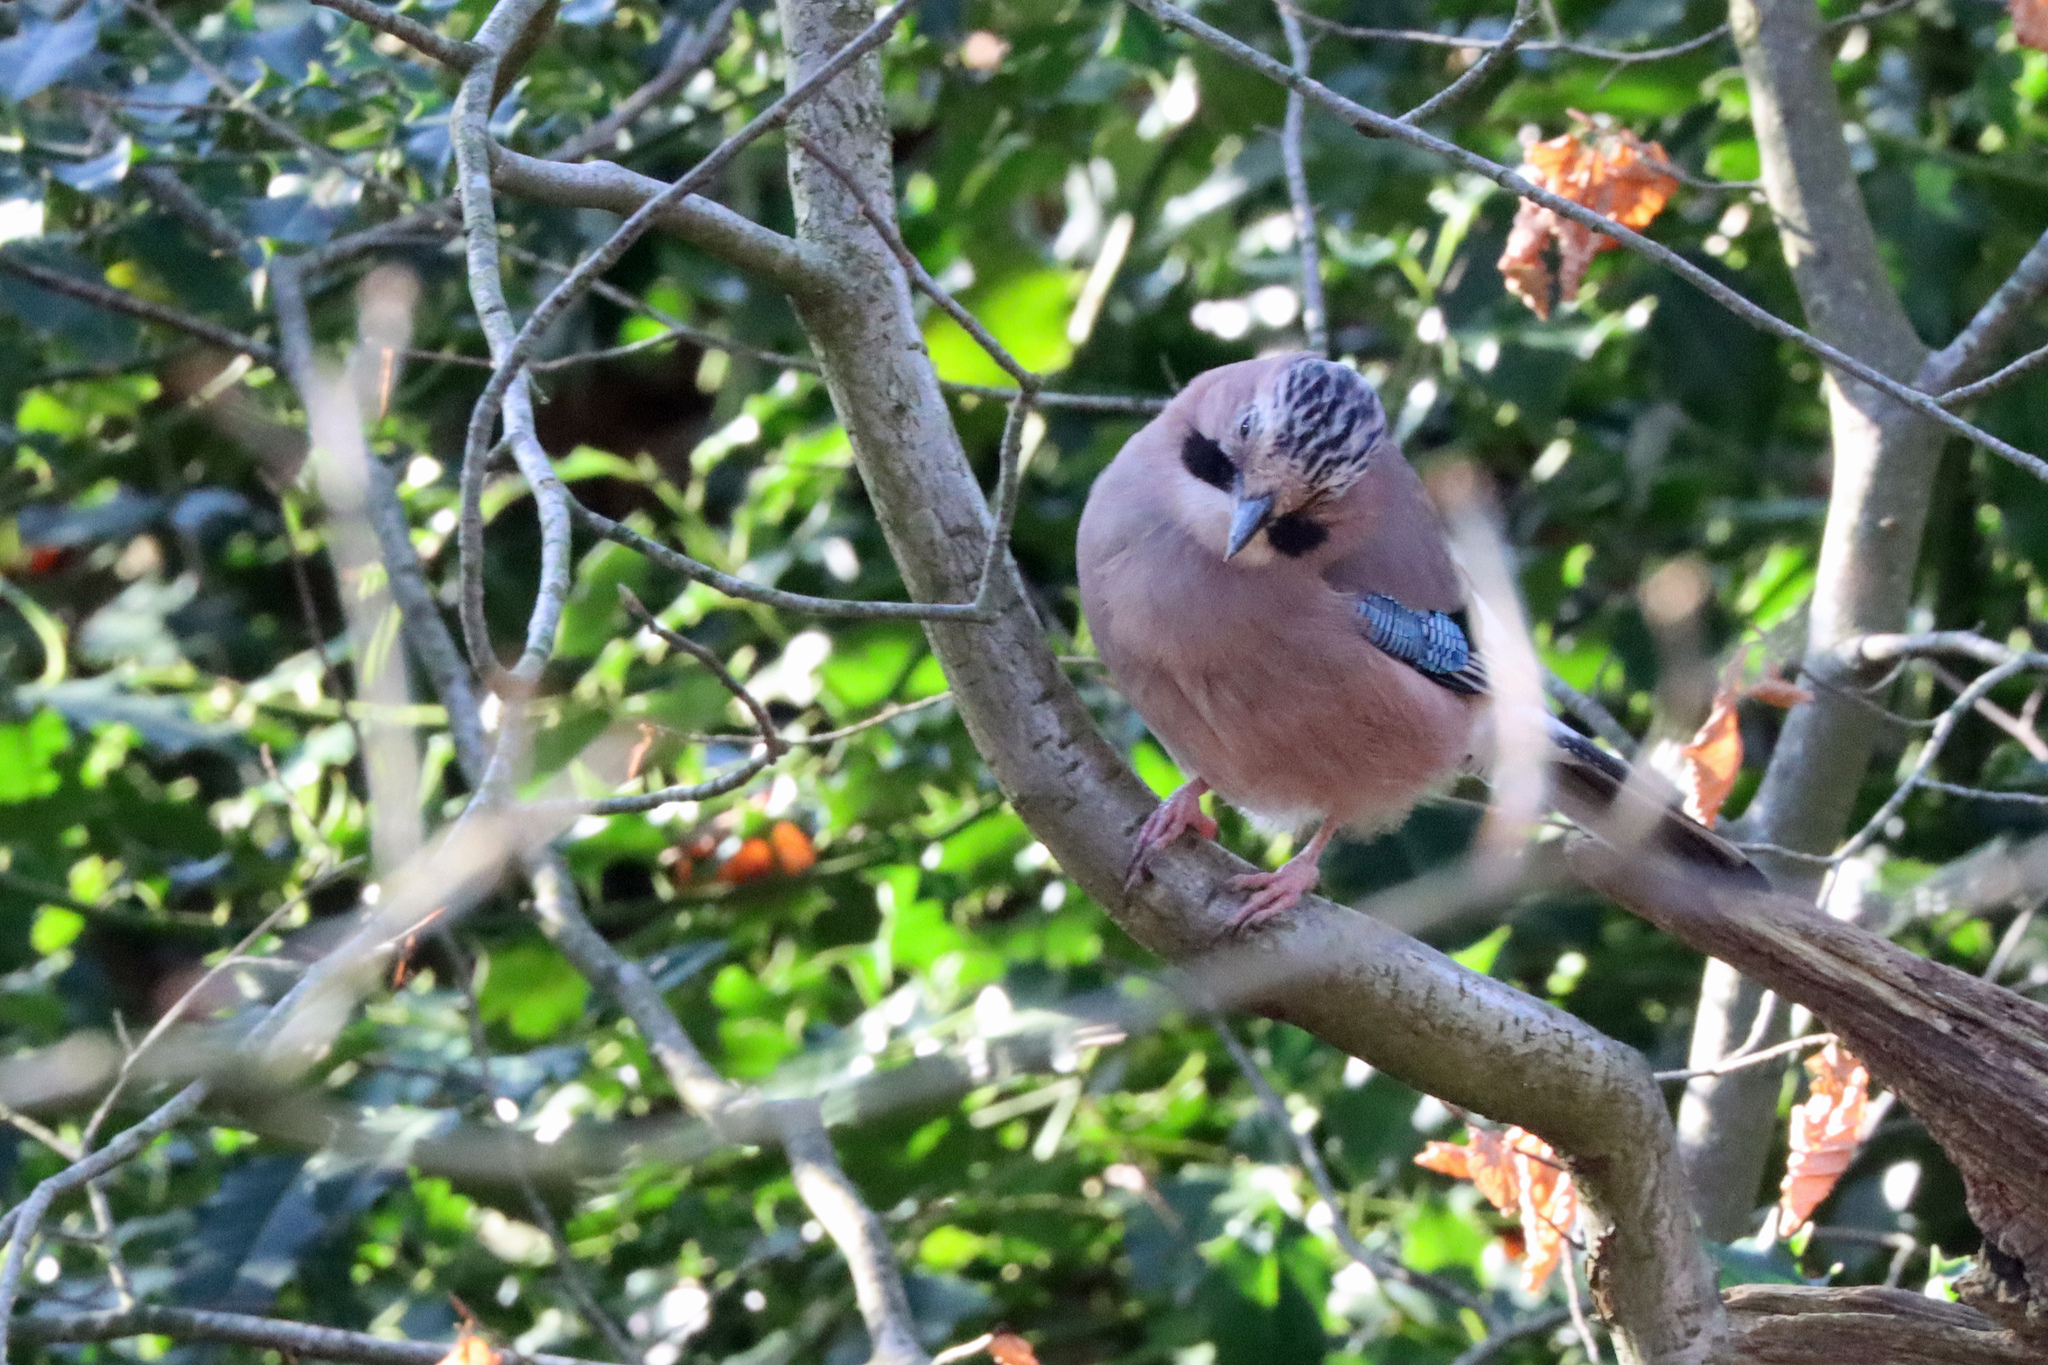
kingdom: Animalia
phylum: Chordata
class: Aves
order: Passeriformes
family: Corvidae
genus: Garrulus
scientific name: Garrulus glandarius
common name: Eurasian jay
